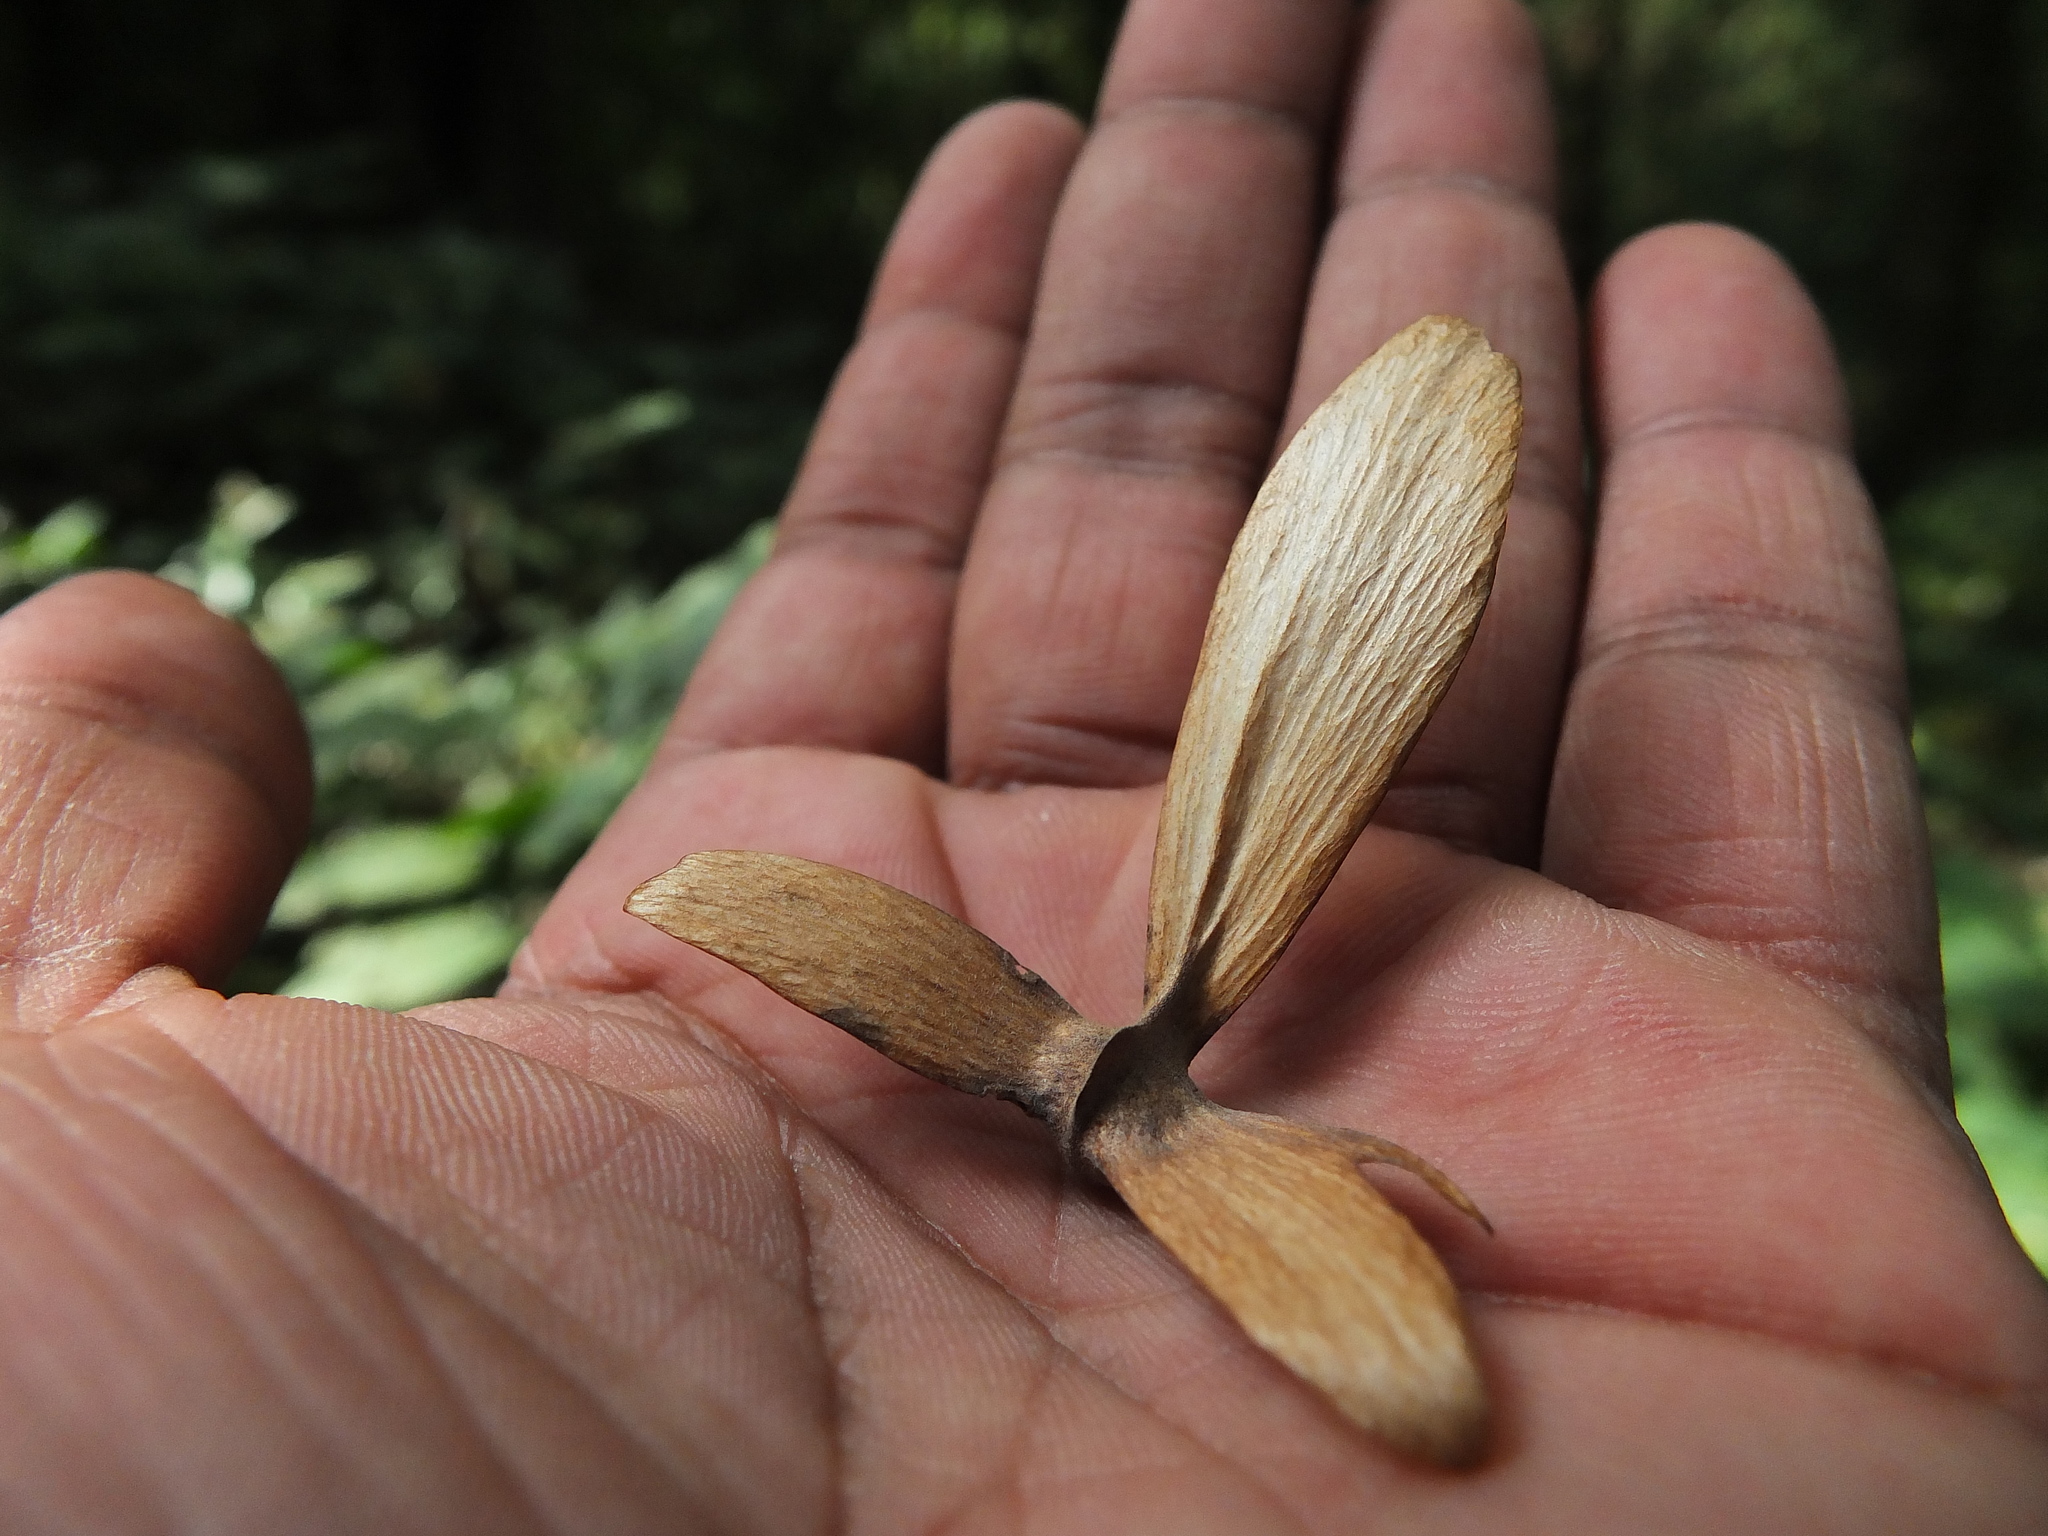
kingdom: Plantae
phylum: Tracheophyta
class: Magnoliopsida
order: Malpighiales
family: Malpighiaceae
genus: Hiptage
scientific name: Hiptage benghalensis
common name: Hiptage
